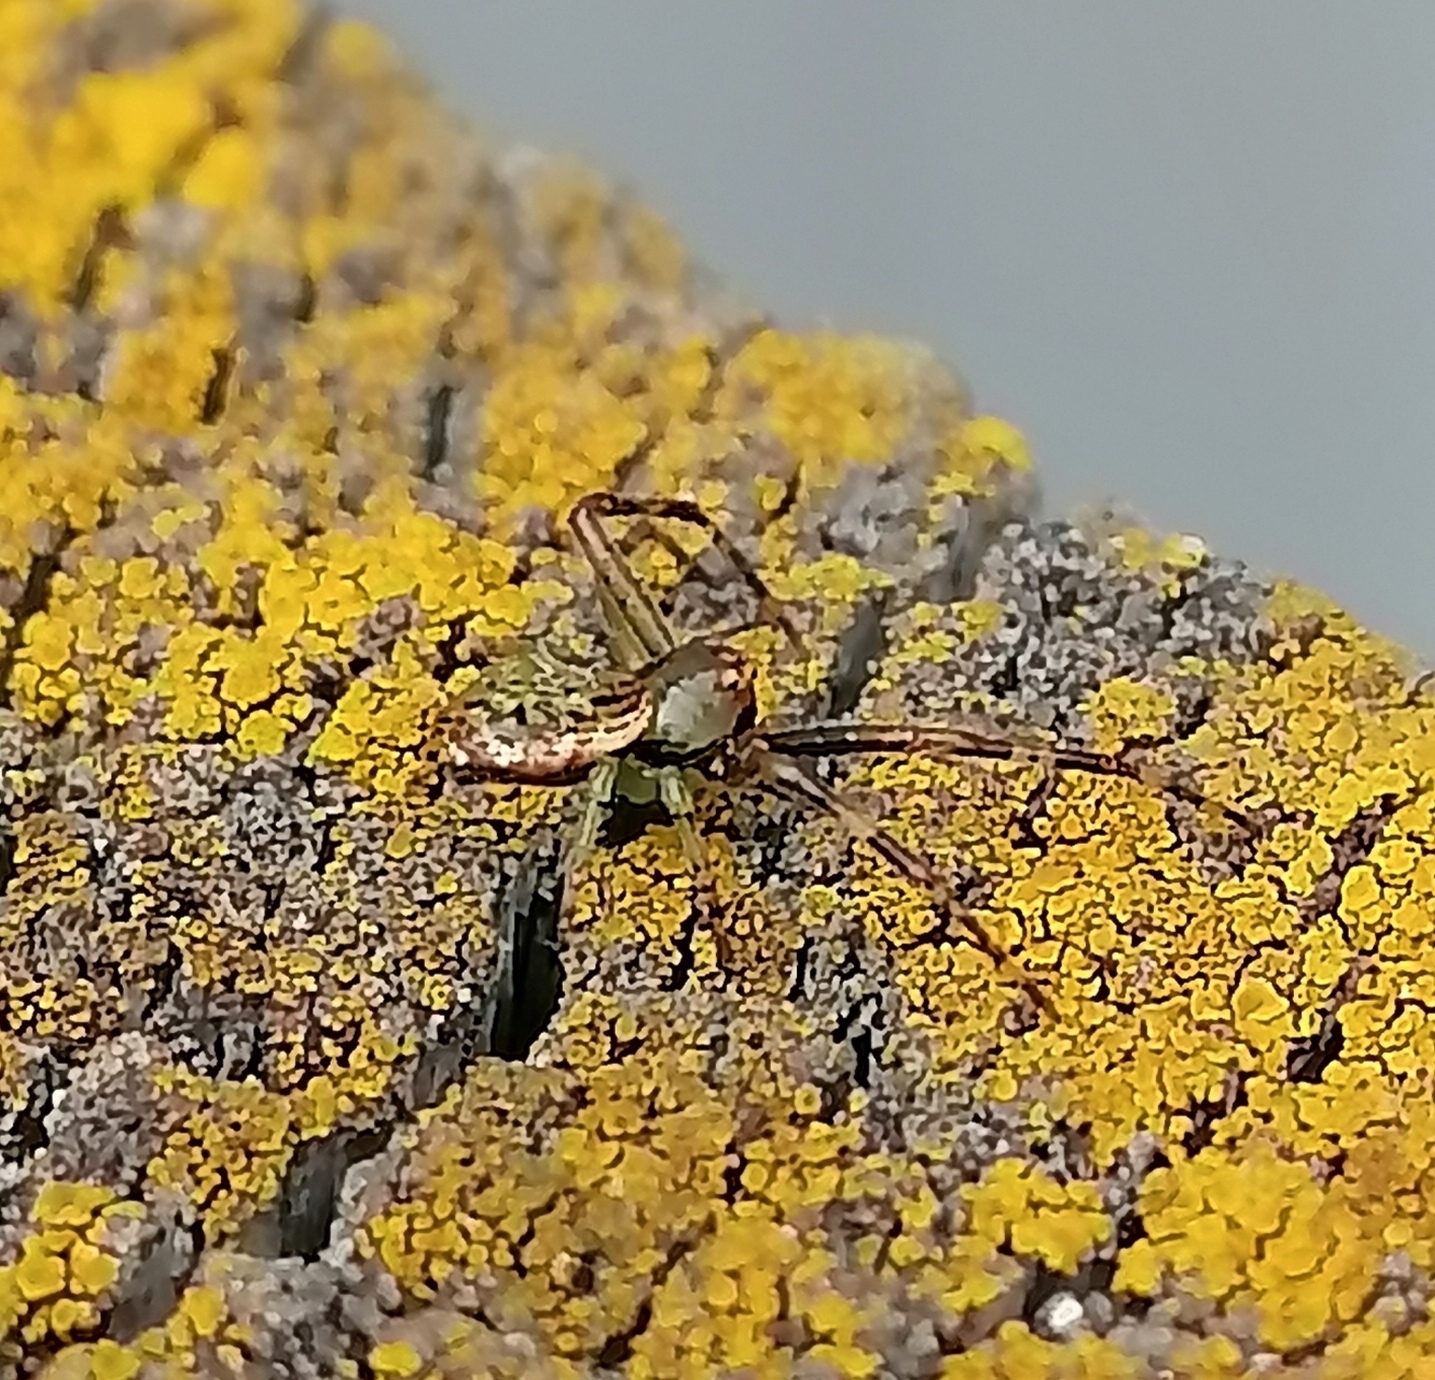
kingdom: Animalia
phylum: Arthropoda
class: Arachnida
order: Araneae
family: Thomisidae
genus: Diaea
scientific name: Diaea ambara
